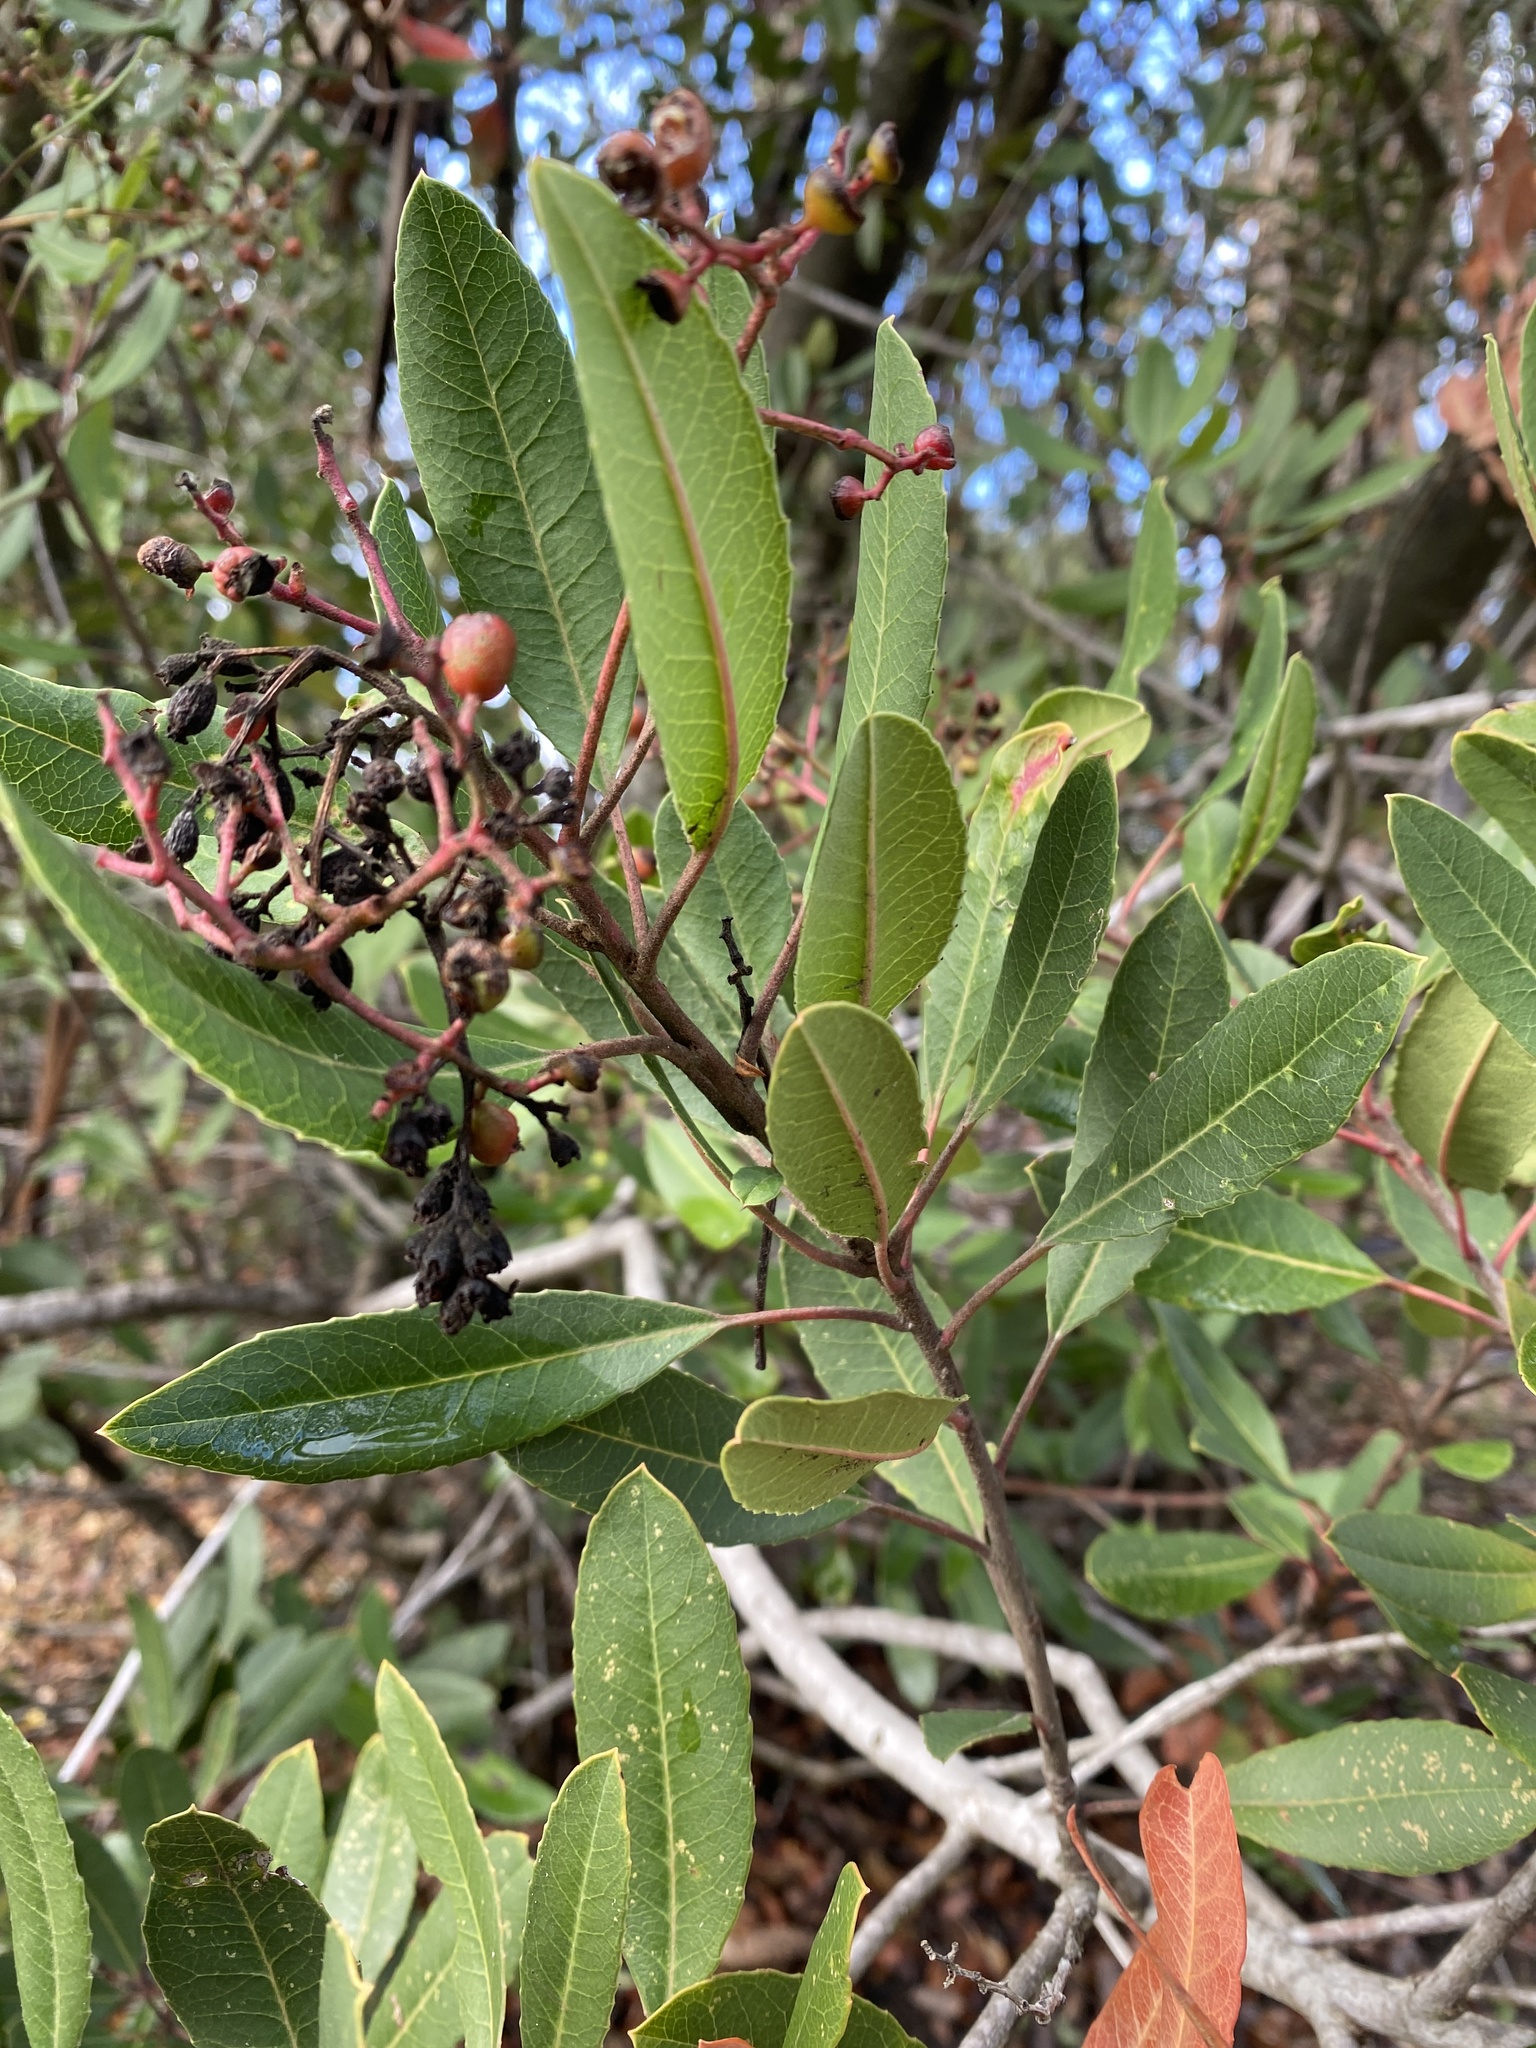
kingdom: Plantae
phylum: Tracheophyta
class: Magnoliopsida
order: Rosales
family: Rosaceae
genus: Heteromeles
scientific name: Heteromeles arbutifolia
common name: California-holly
